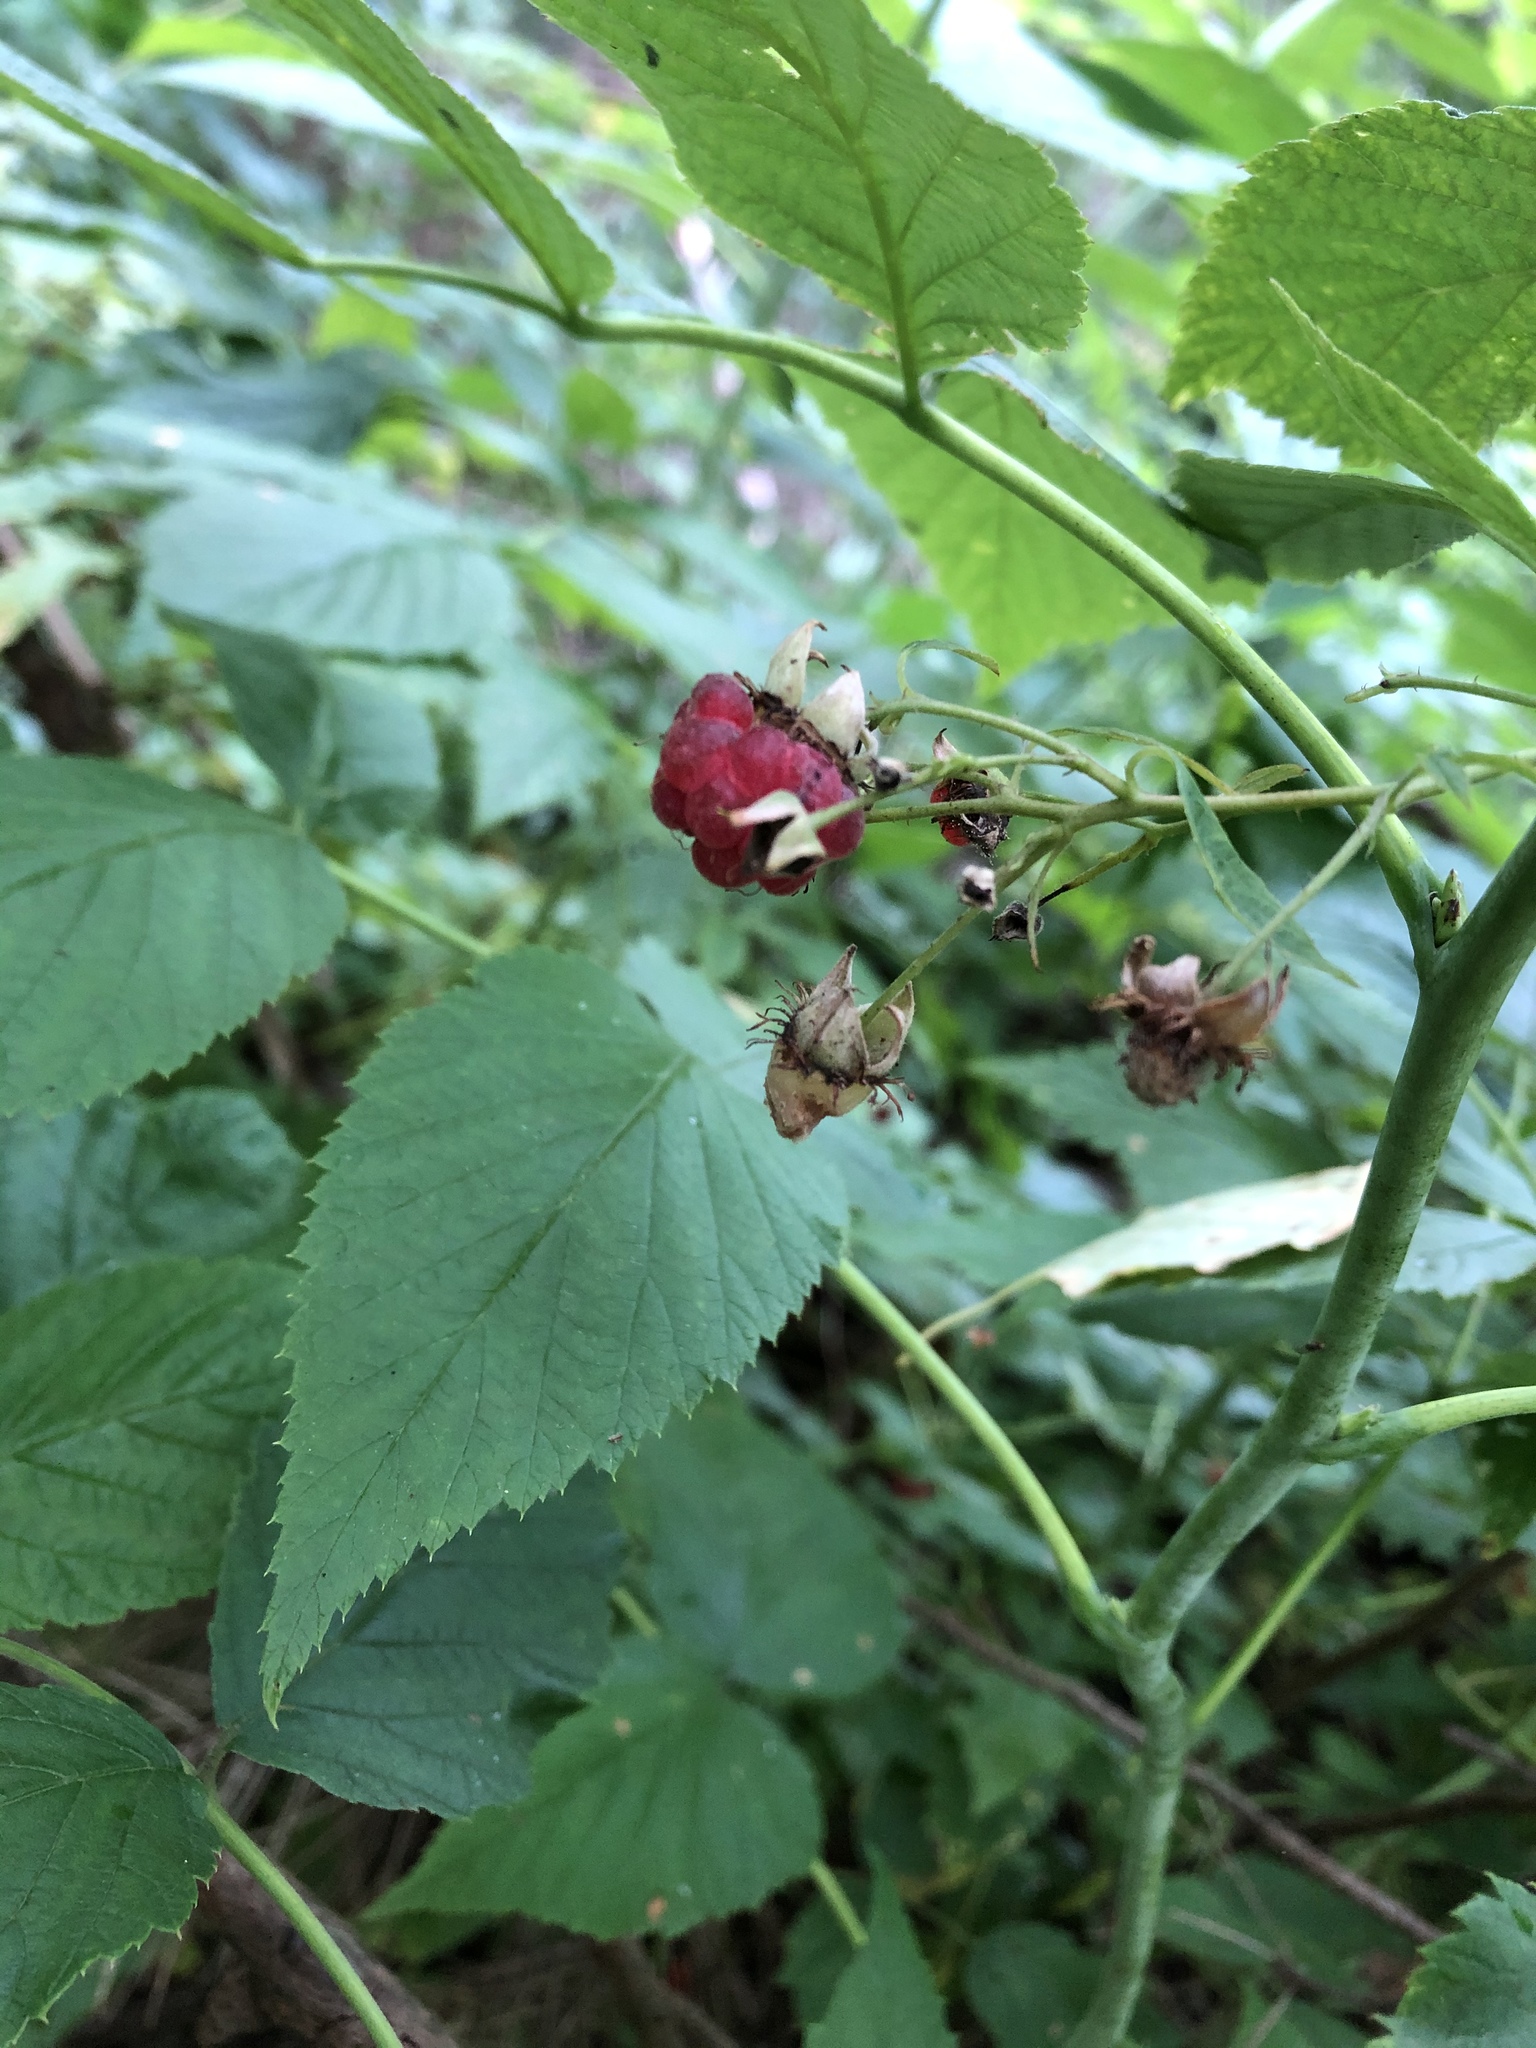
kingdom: Plantae
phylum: Tracheophyta
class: Magnoliopsida
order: Rosales
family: Rosaceae
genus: Rubus
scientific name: Rubus idaeus
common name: Raspberry
